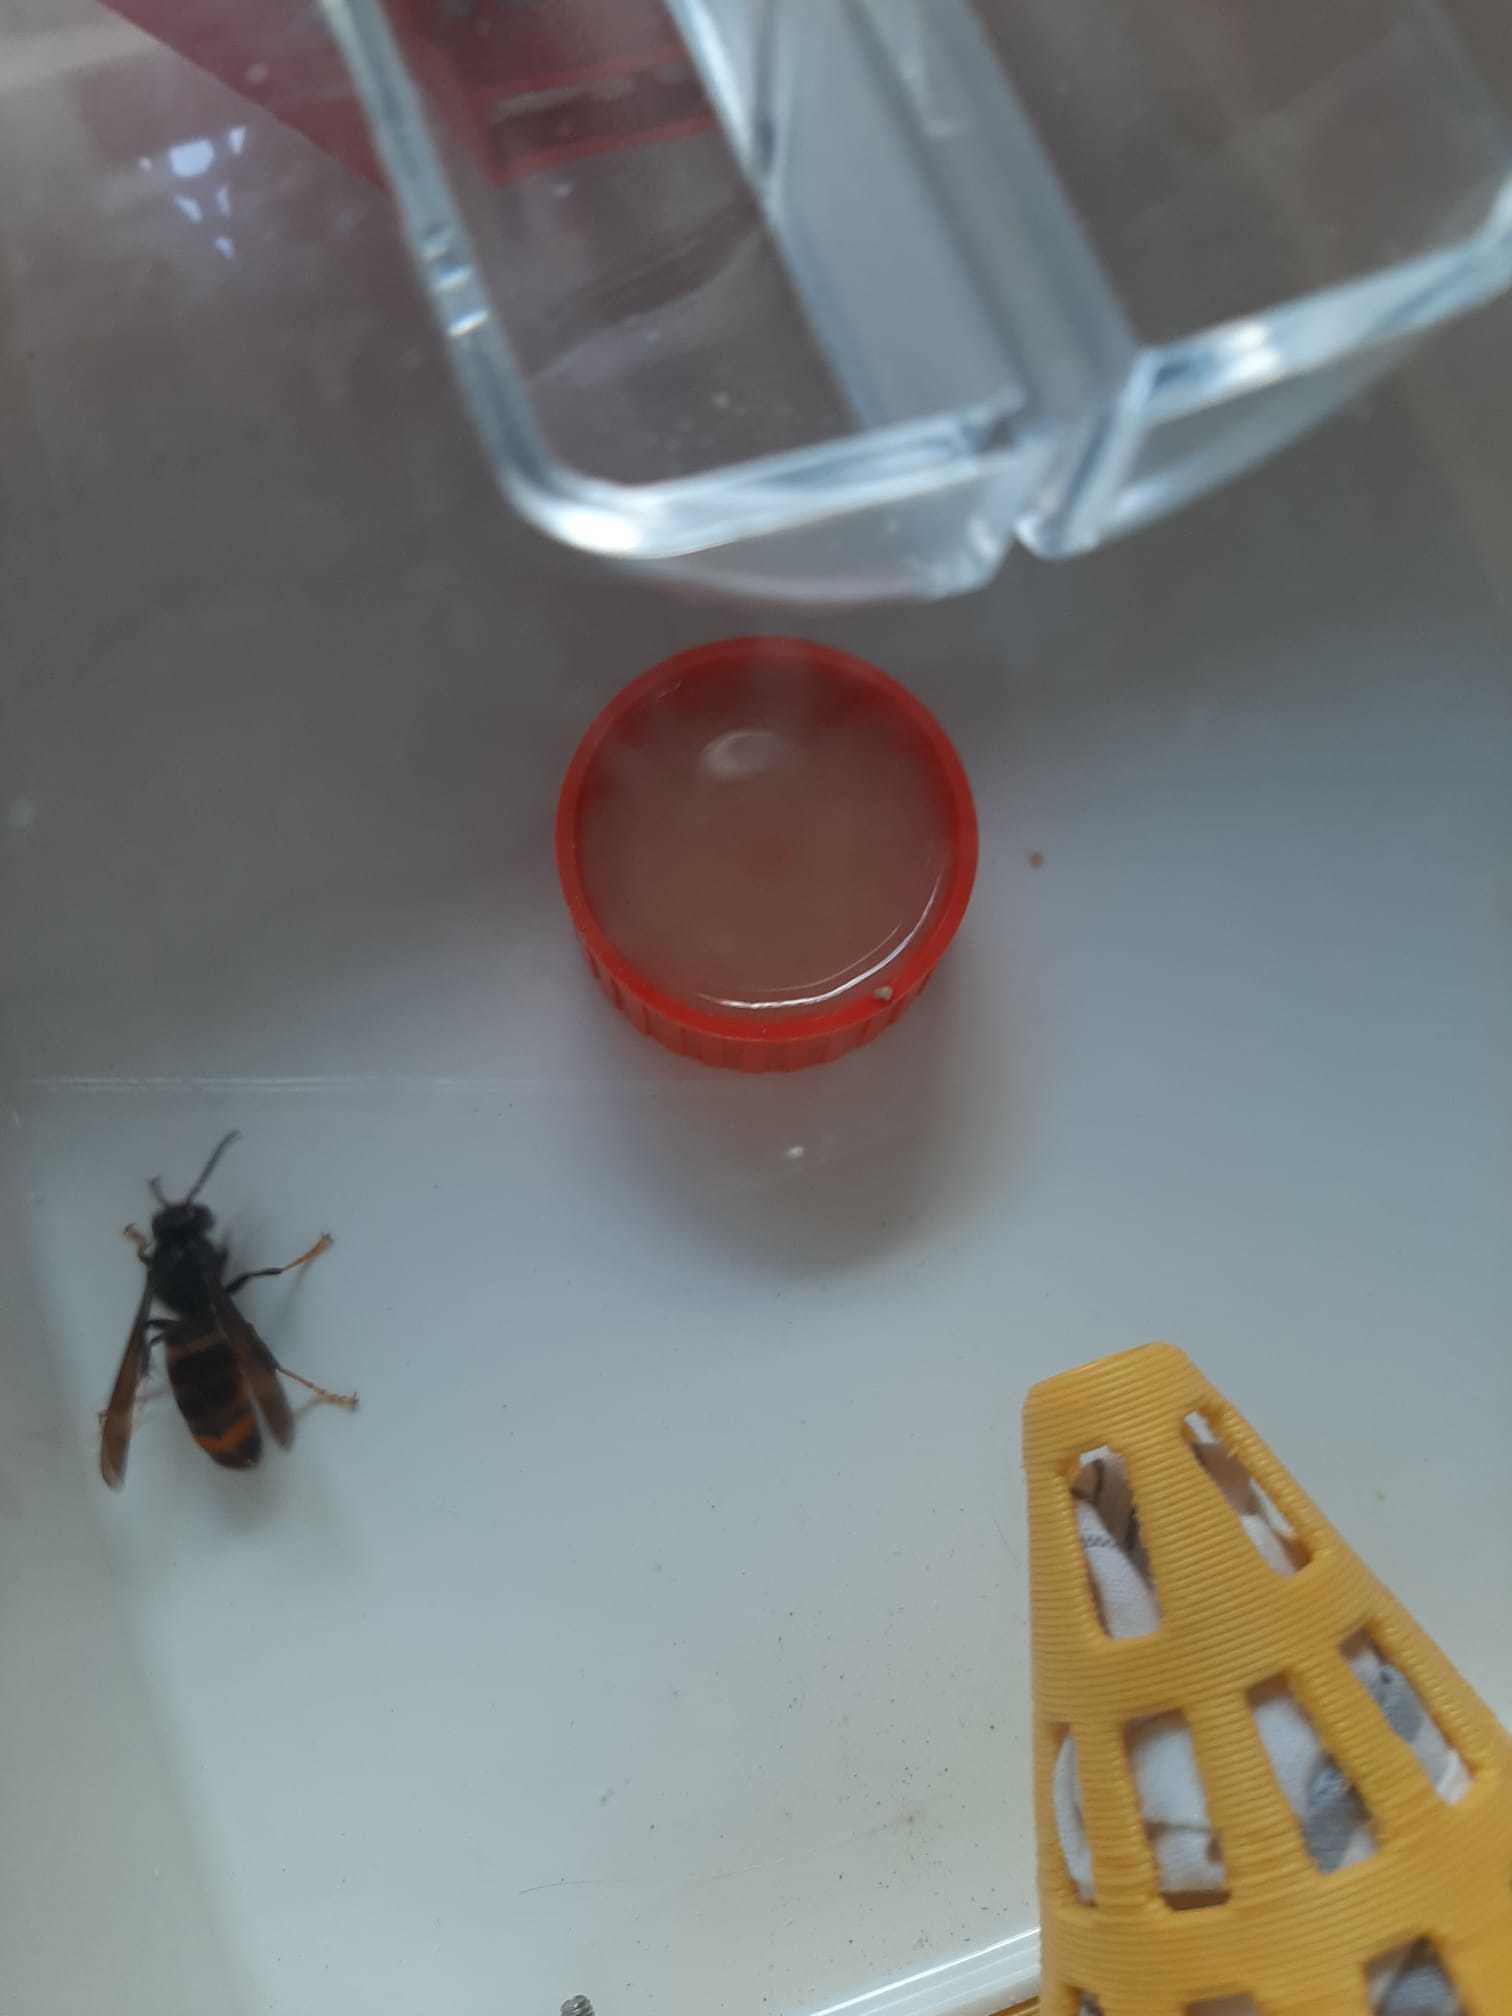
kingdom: Animalia
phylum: Arthropoda
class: Insecta
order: Hymenoptera
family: Vespidae
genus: Vespa
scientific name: Vespa velutina
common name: Asian hornet
